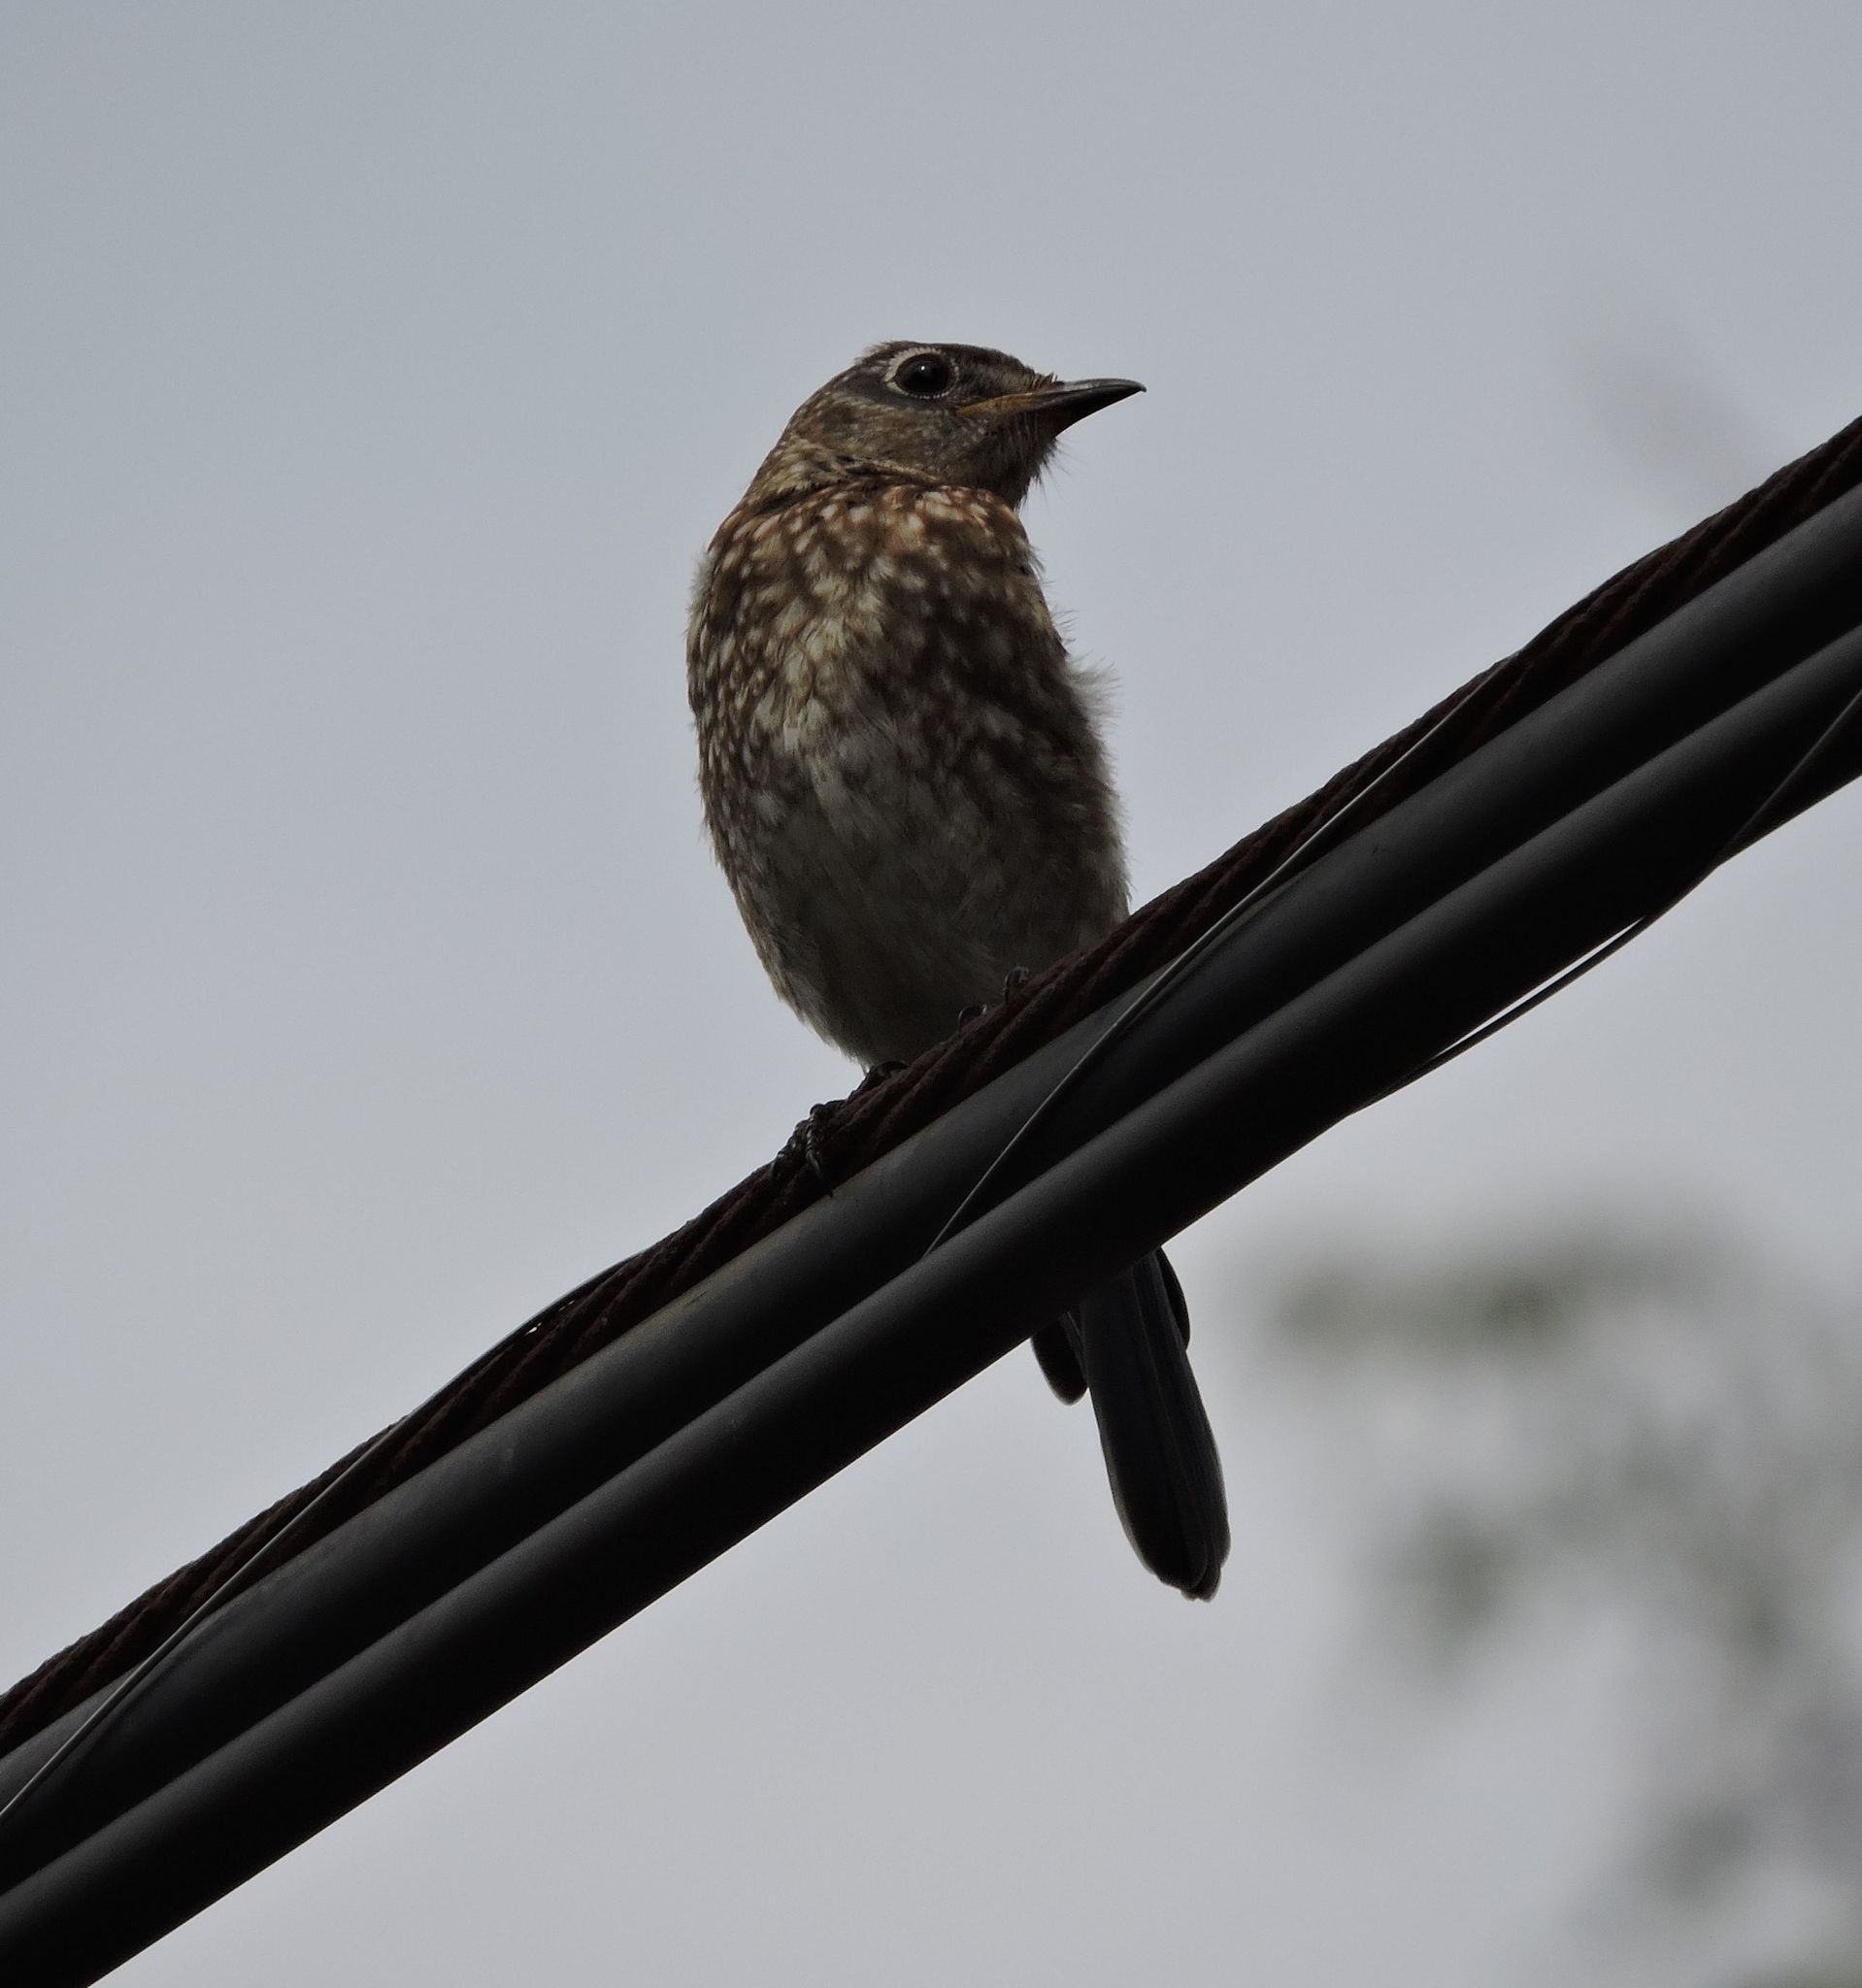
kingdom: Animalia
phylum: Chordata
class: Aves
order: Passeriformes
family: Turdidae
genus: Sialia
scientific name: Sialia sialis
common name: Eastern bluebird
